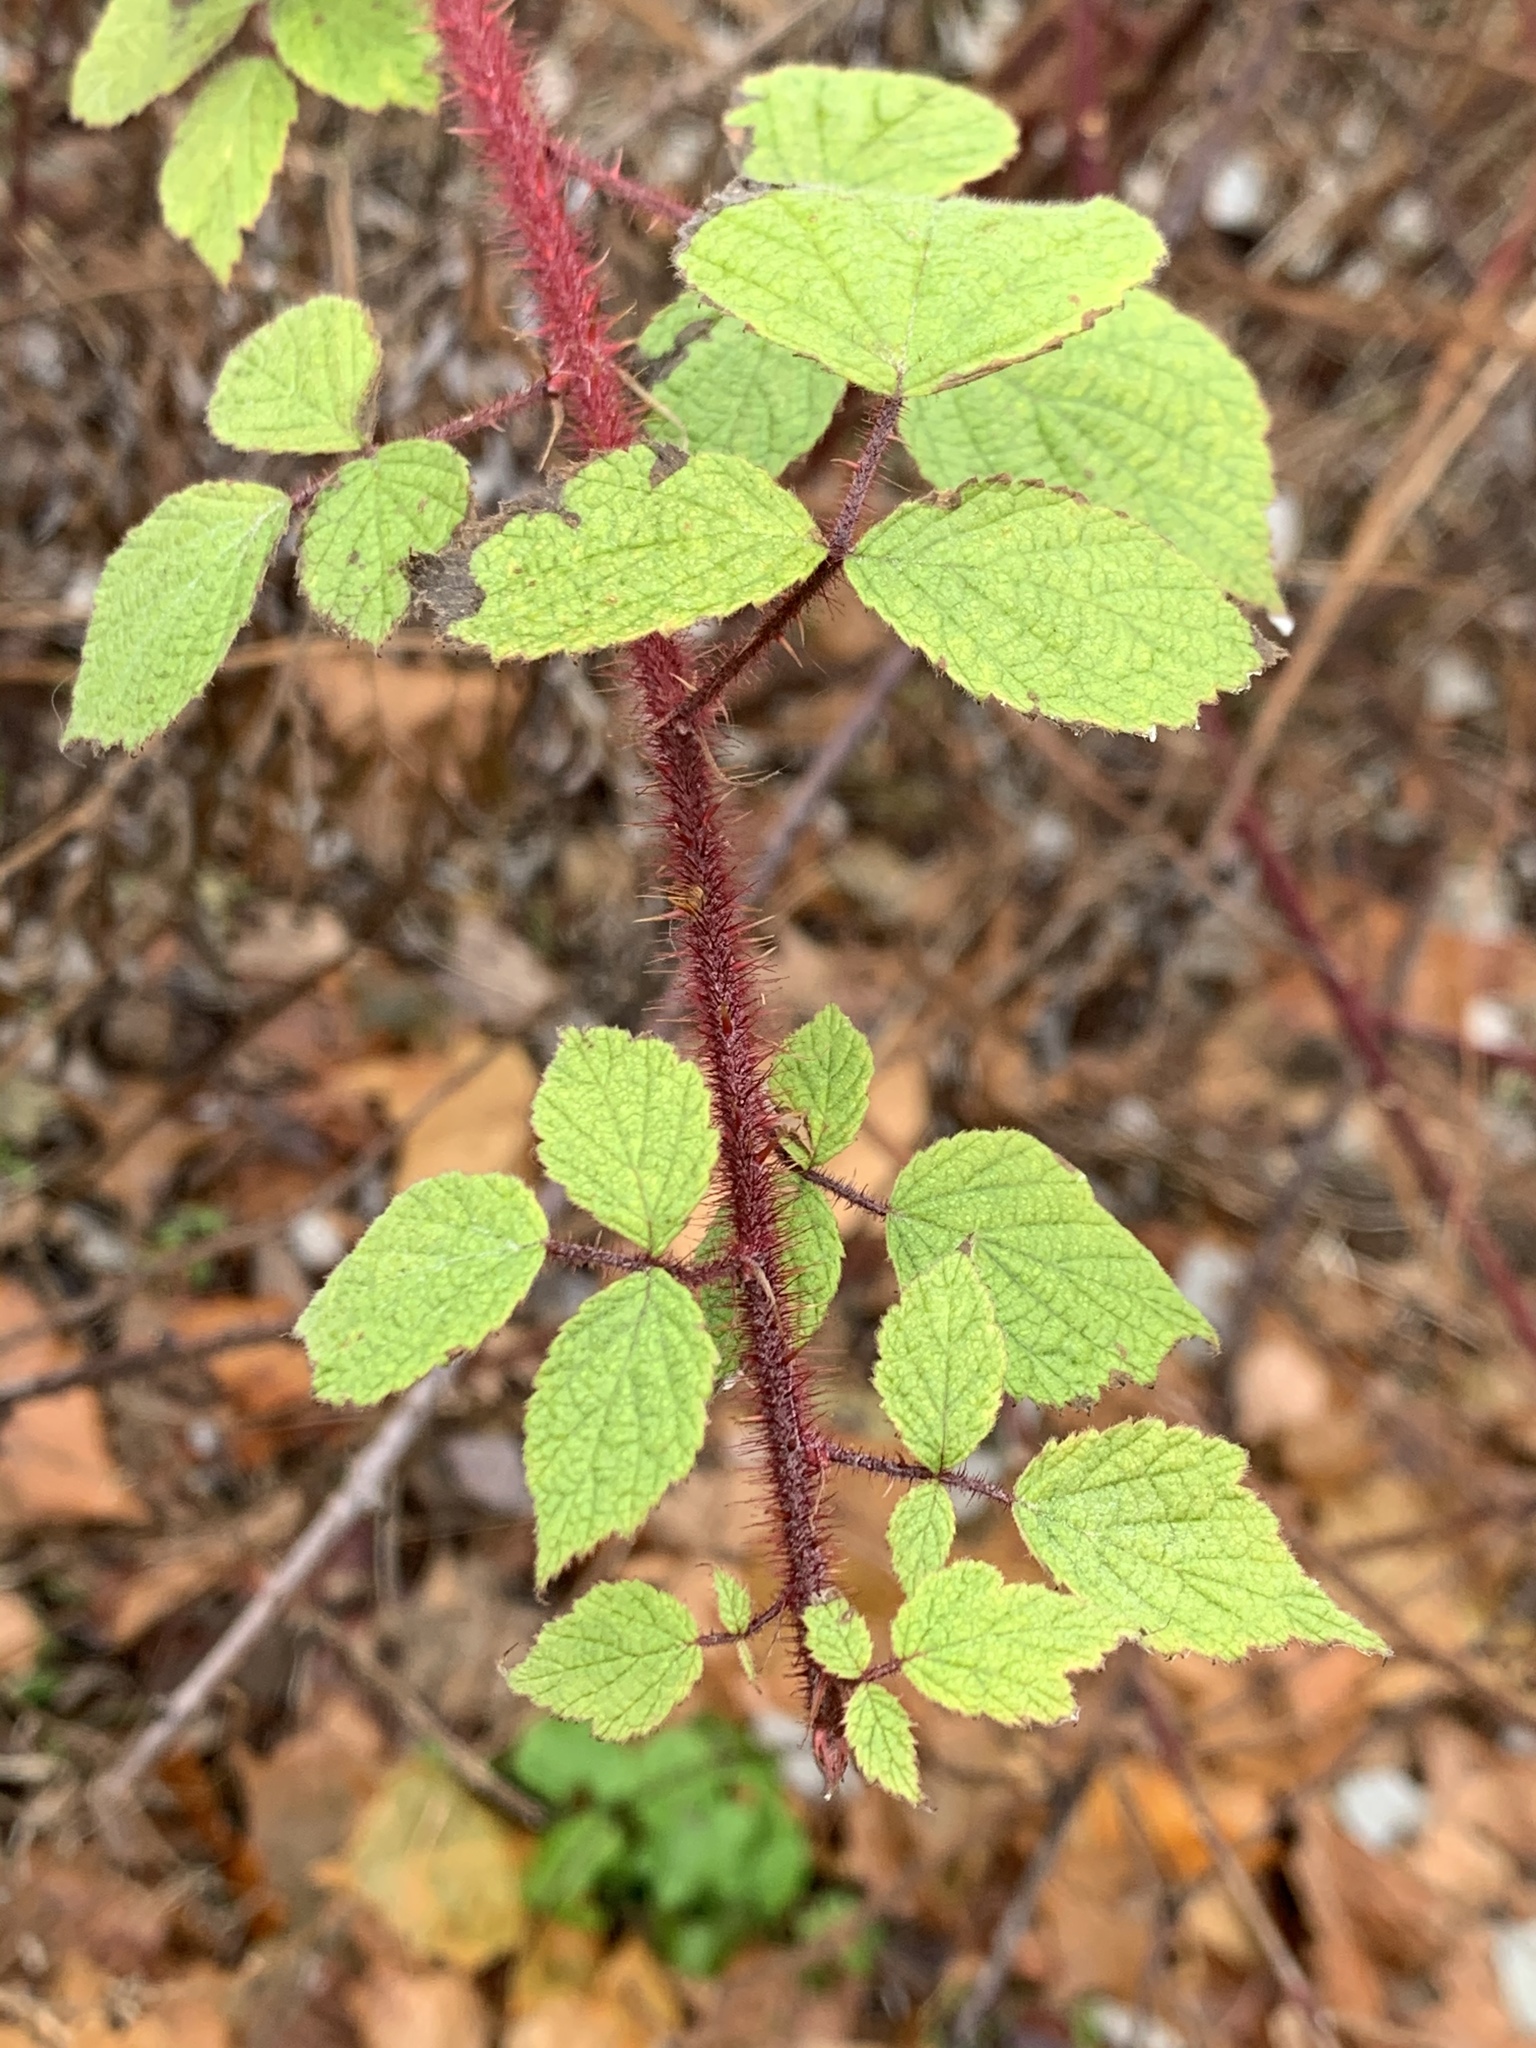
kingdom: Plantae
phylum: Tracheophyta
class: Magnoliopsida
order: Rosales
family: Rosaceae
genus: Rubus
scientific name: Rubus phoenicolasius
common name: Japanese wineberry
